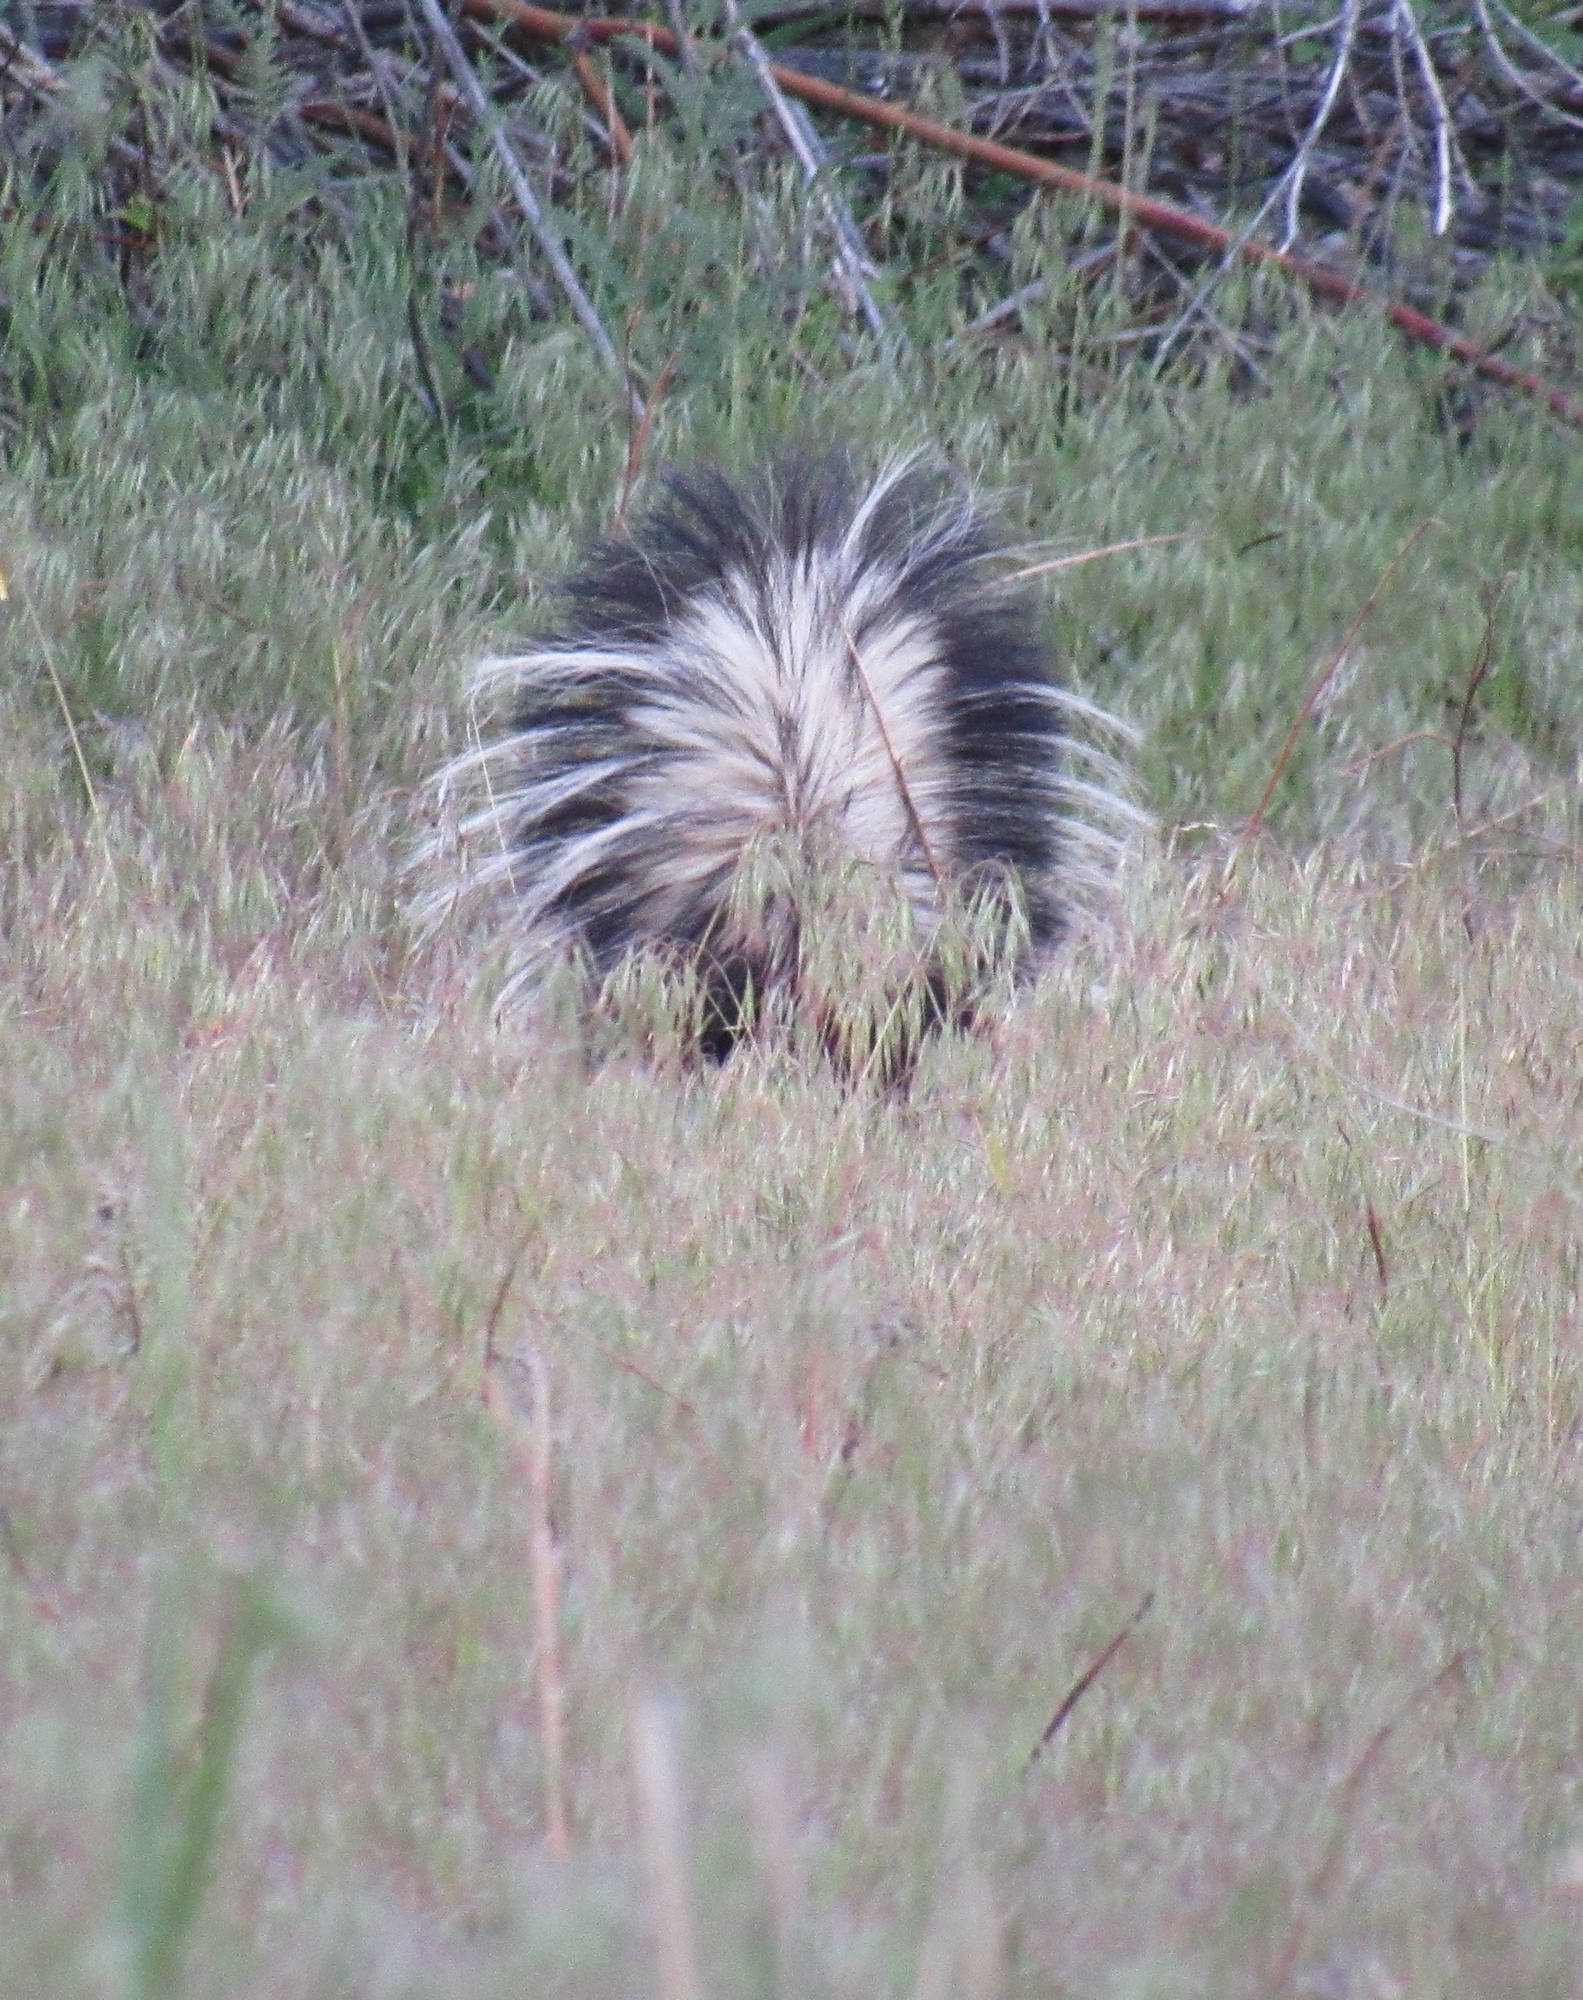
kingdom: Animalia
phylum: Chordata
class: Mammalia
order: Carnivora
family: Mephitidae
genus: Mephitis
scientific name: Mephitis mephitis
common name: Striped skunk
